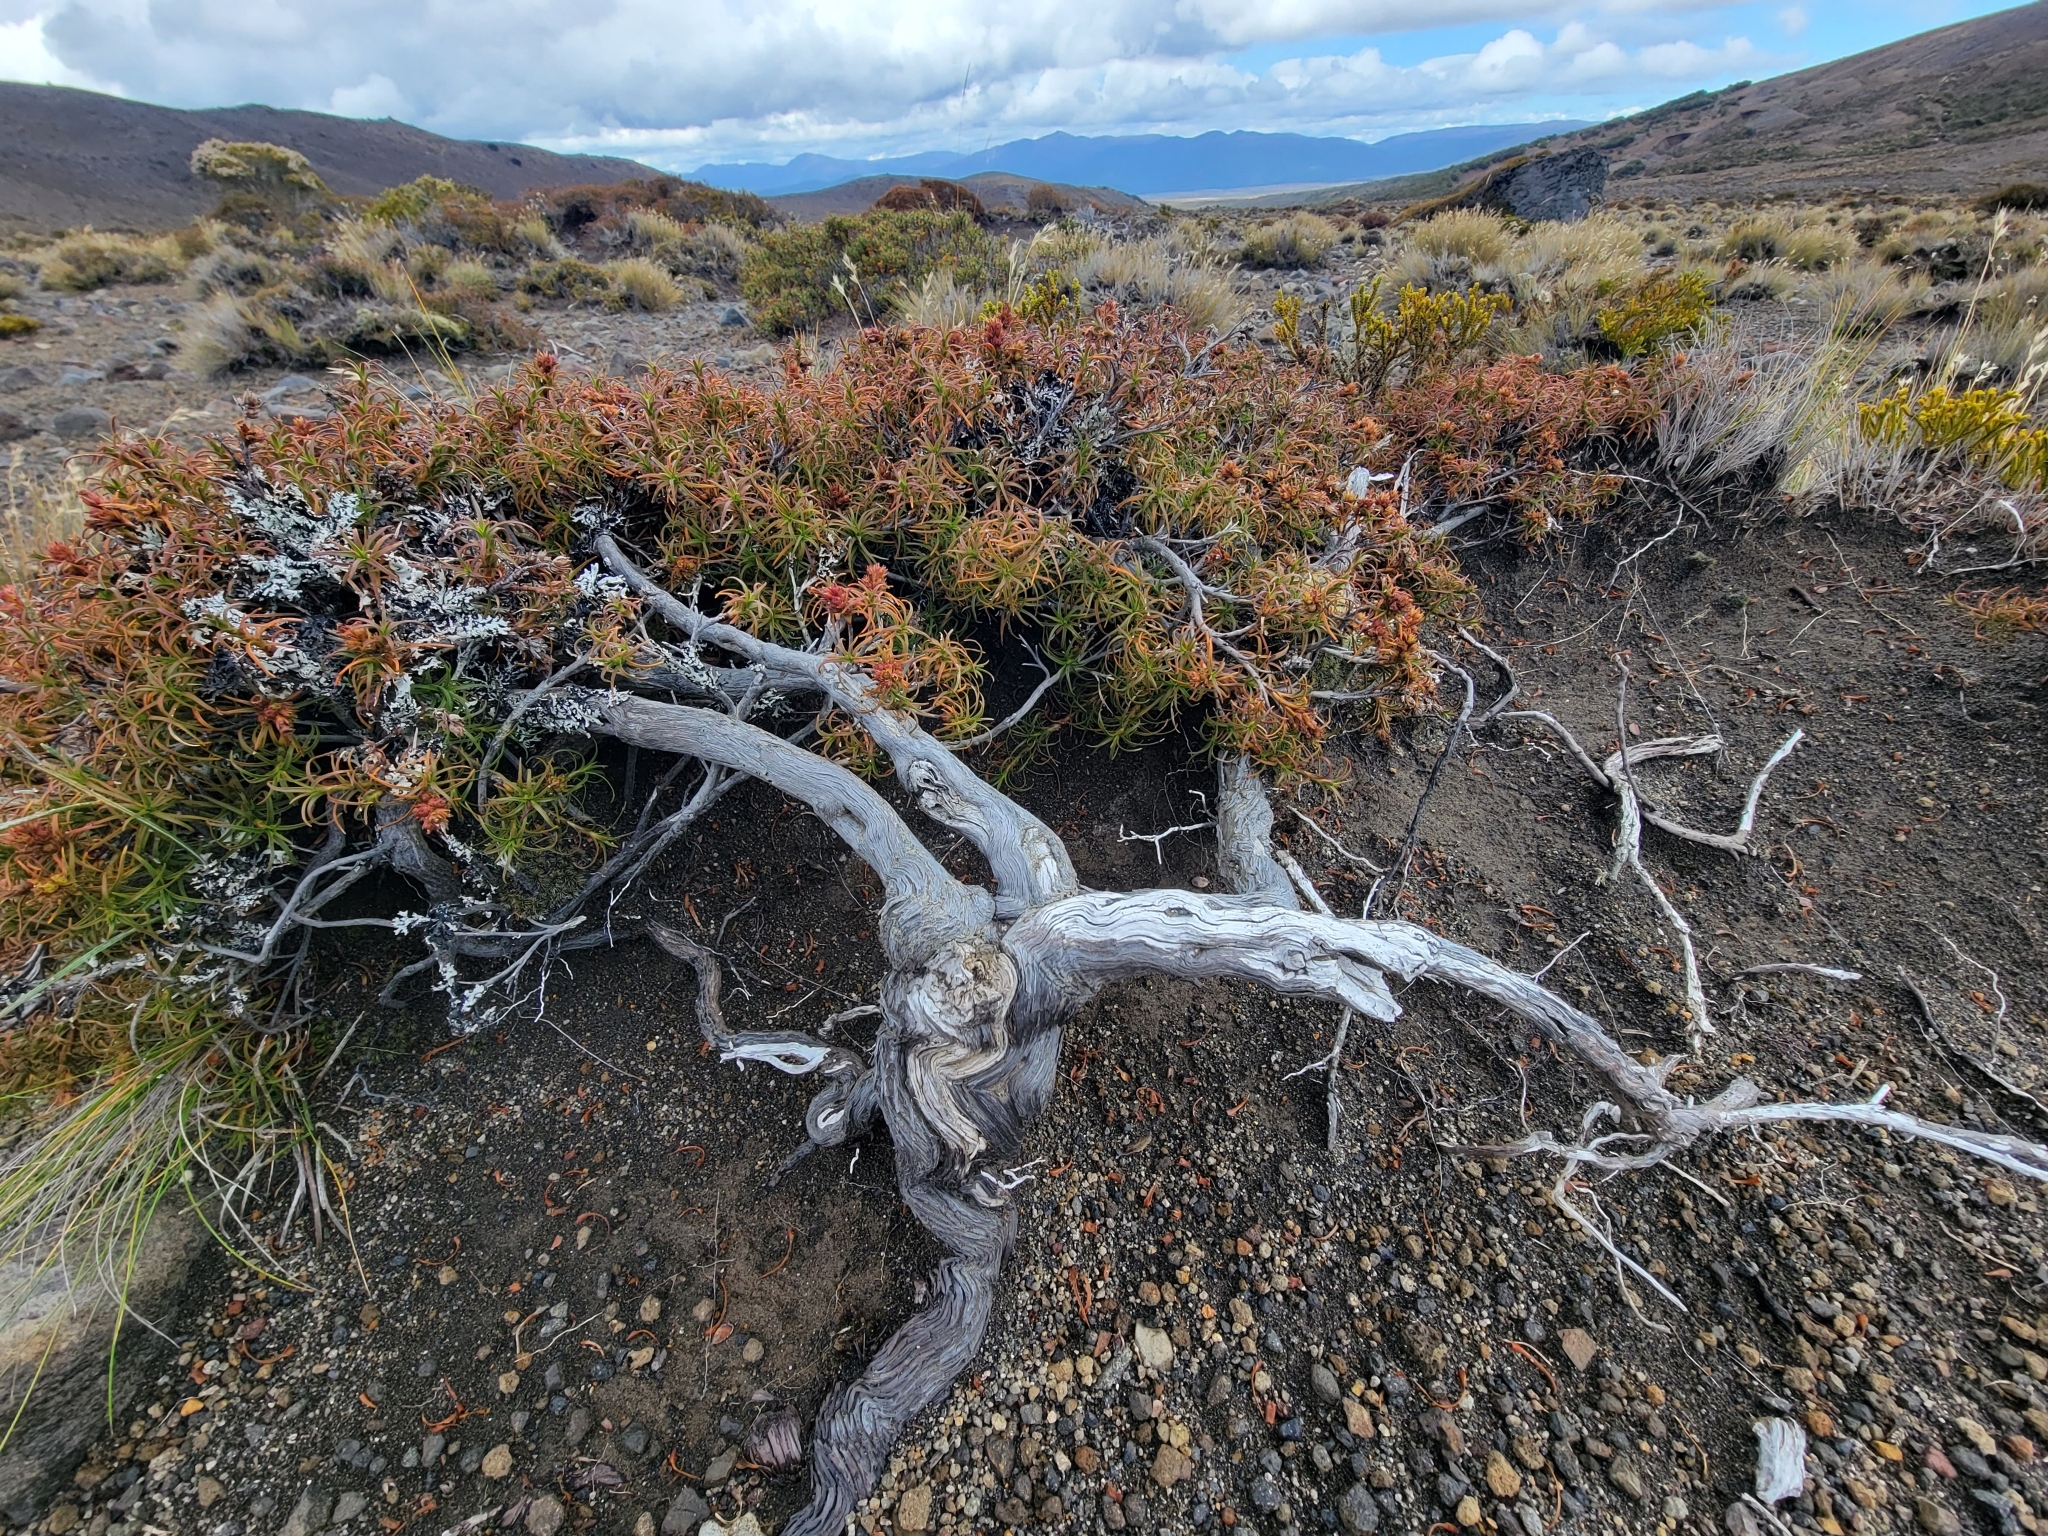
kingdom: Plantae
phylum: Tracheophyta
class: Magnoliopsida
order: Ericales
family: Ericaceae
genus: Dracophyllum
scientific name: Dracophyllum recurvum
